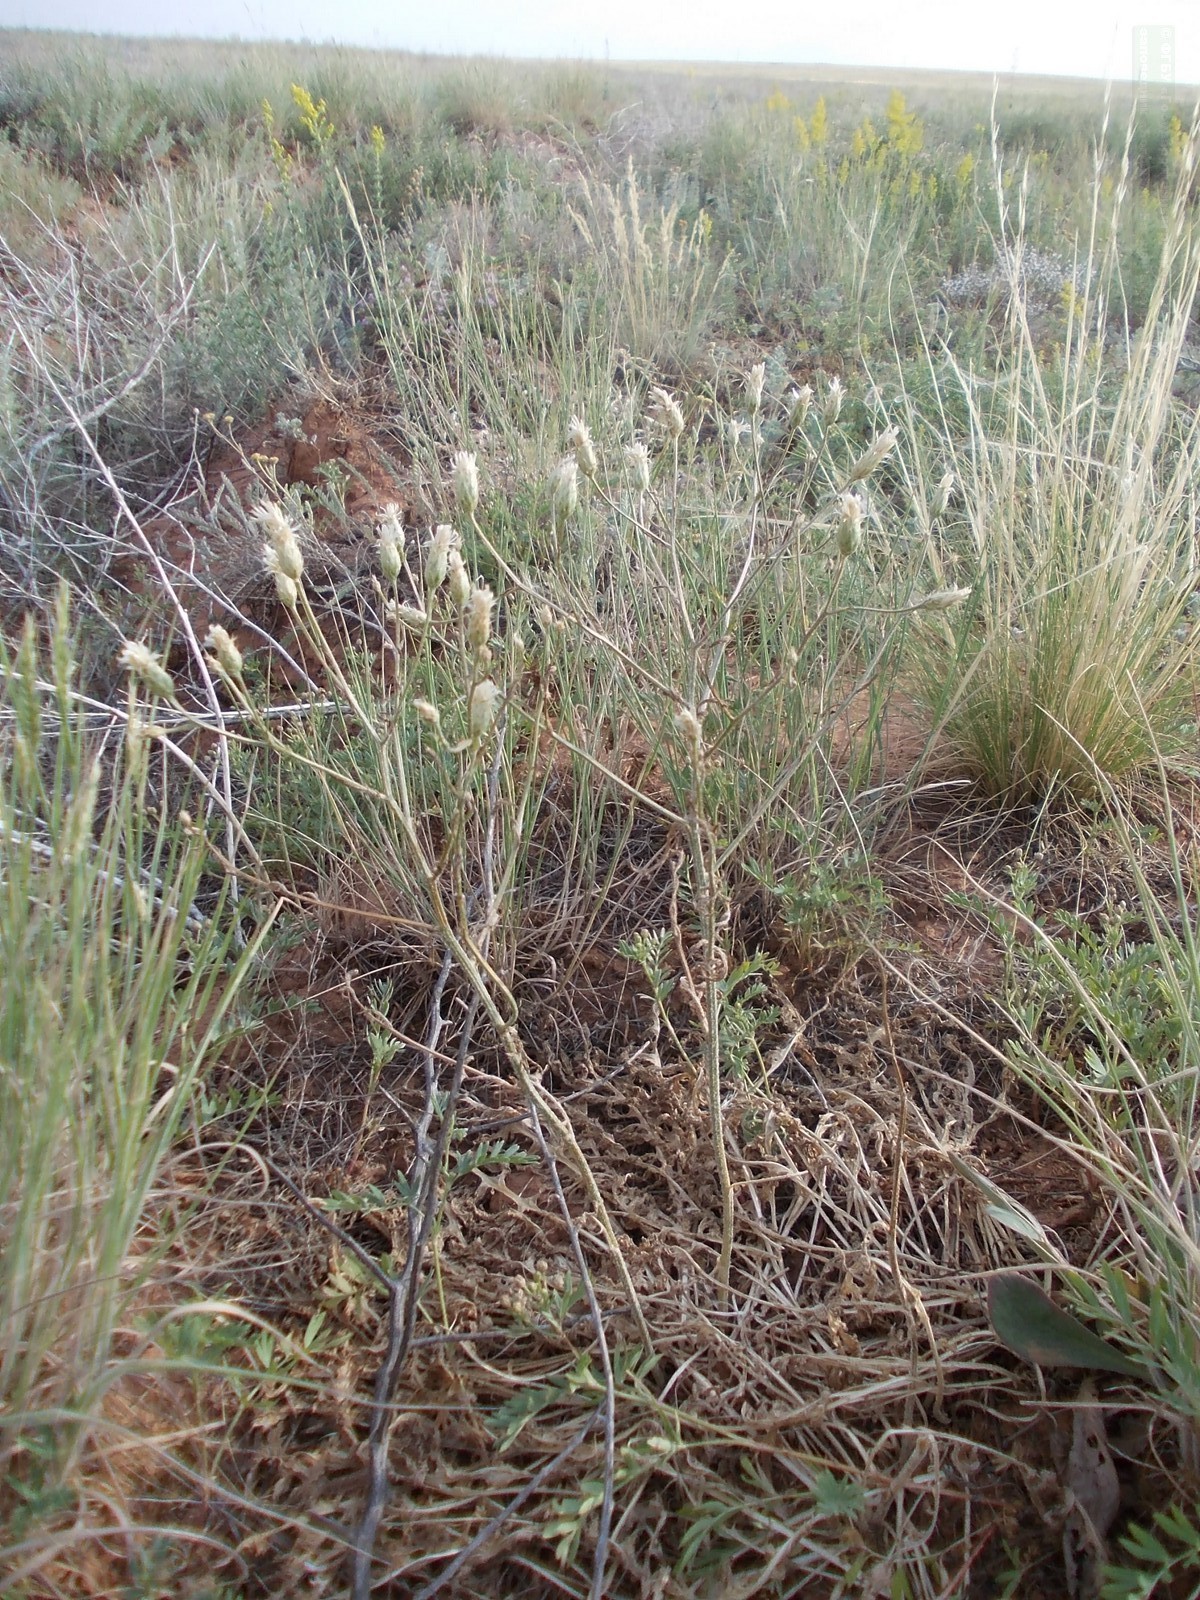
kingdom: Plantae
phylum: Tracheophyta
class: Magnoliopsida
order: Asterales
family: Asteraceae
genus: Klasea
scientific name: Klasea erucifolia
